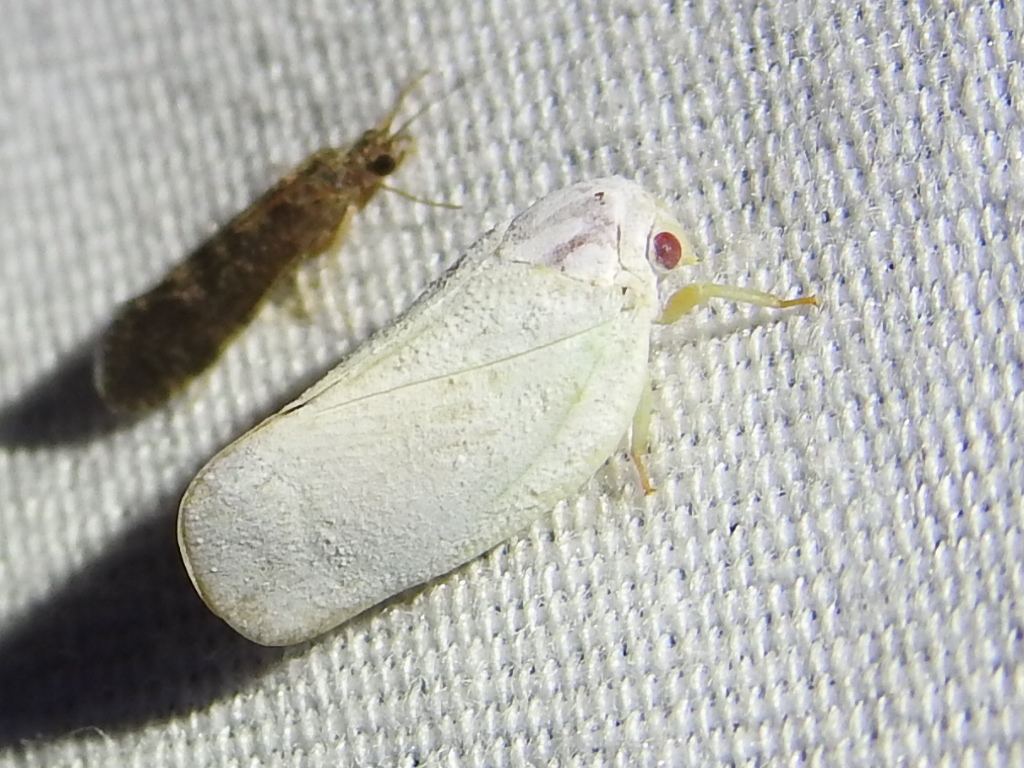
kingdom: Animalia
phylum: Arthropoda
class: Insecta
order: Hemiptera
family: Flatidae
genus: Flatormenis
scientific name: Flatormenis saucia
